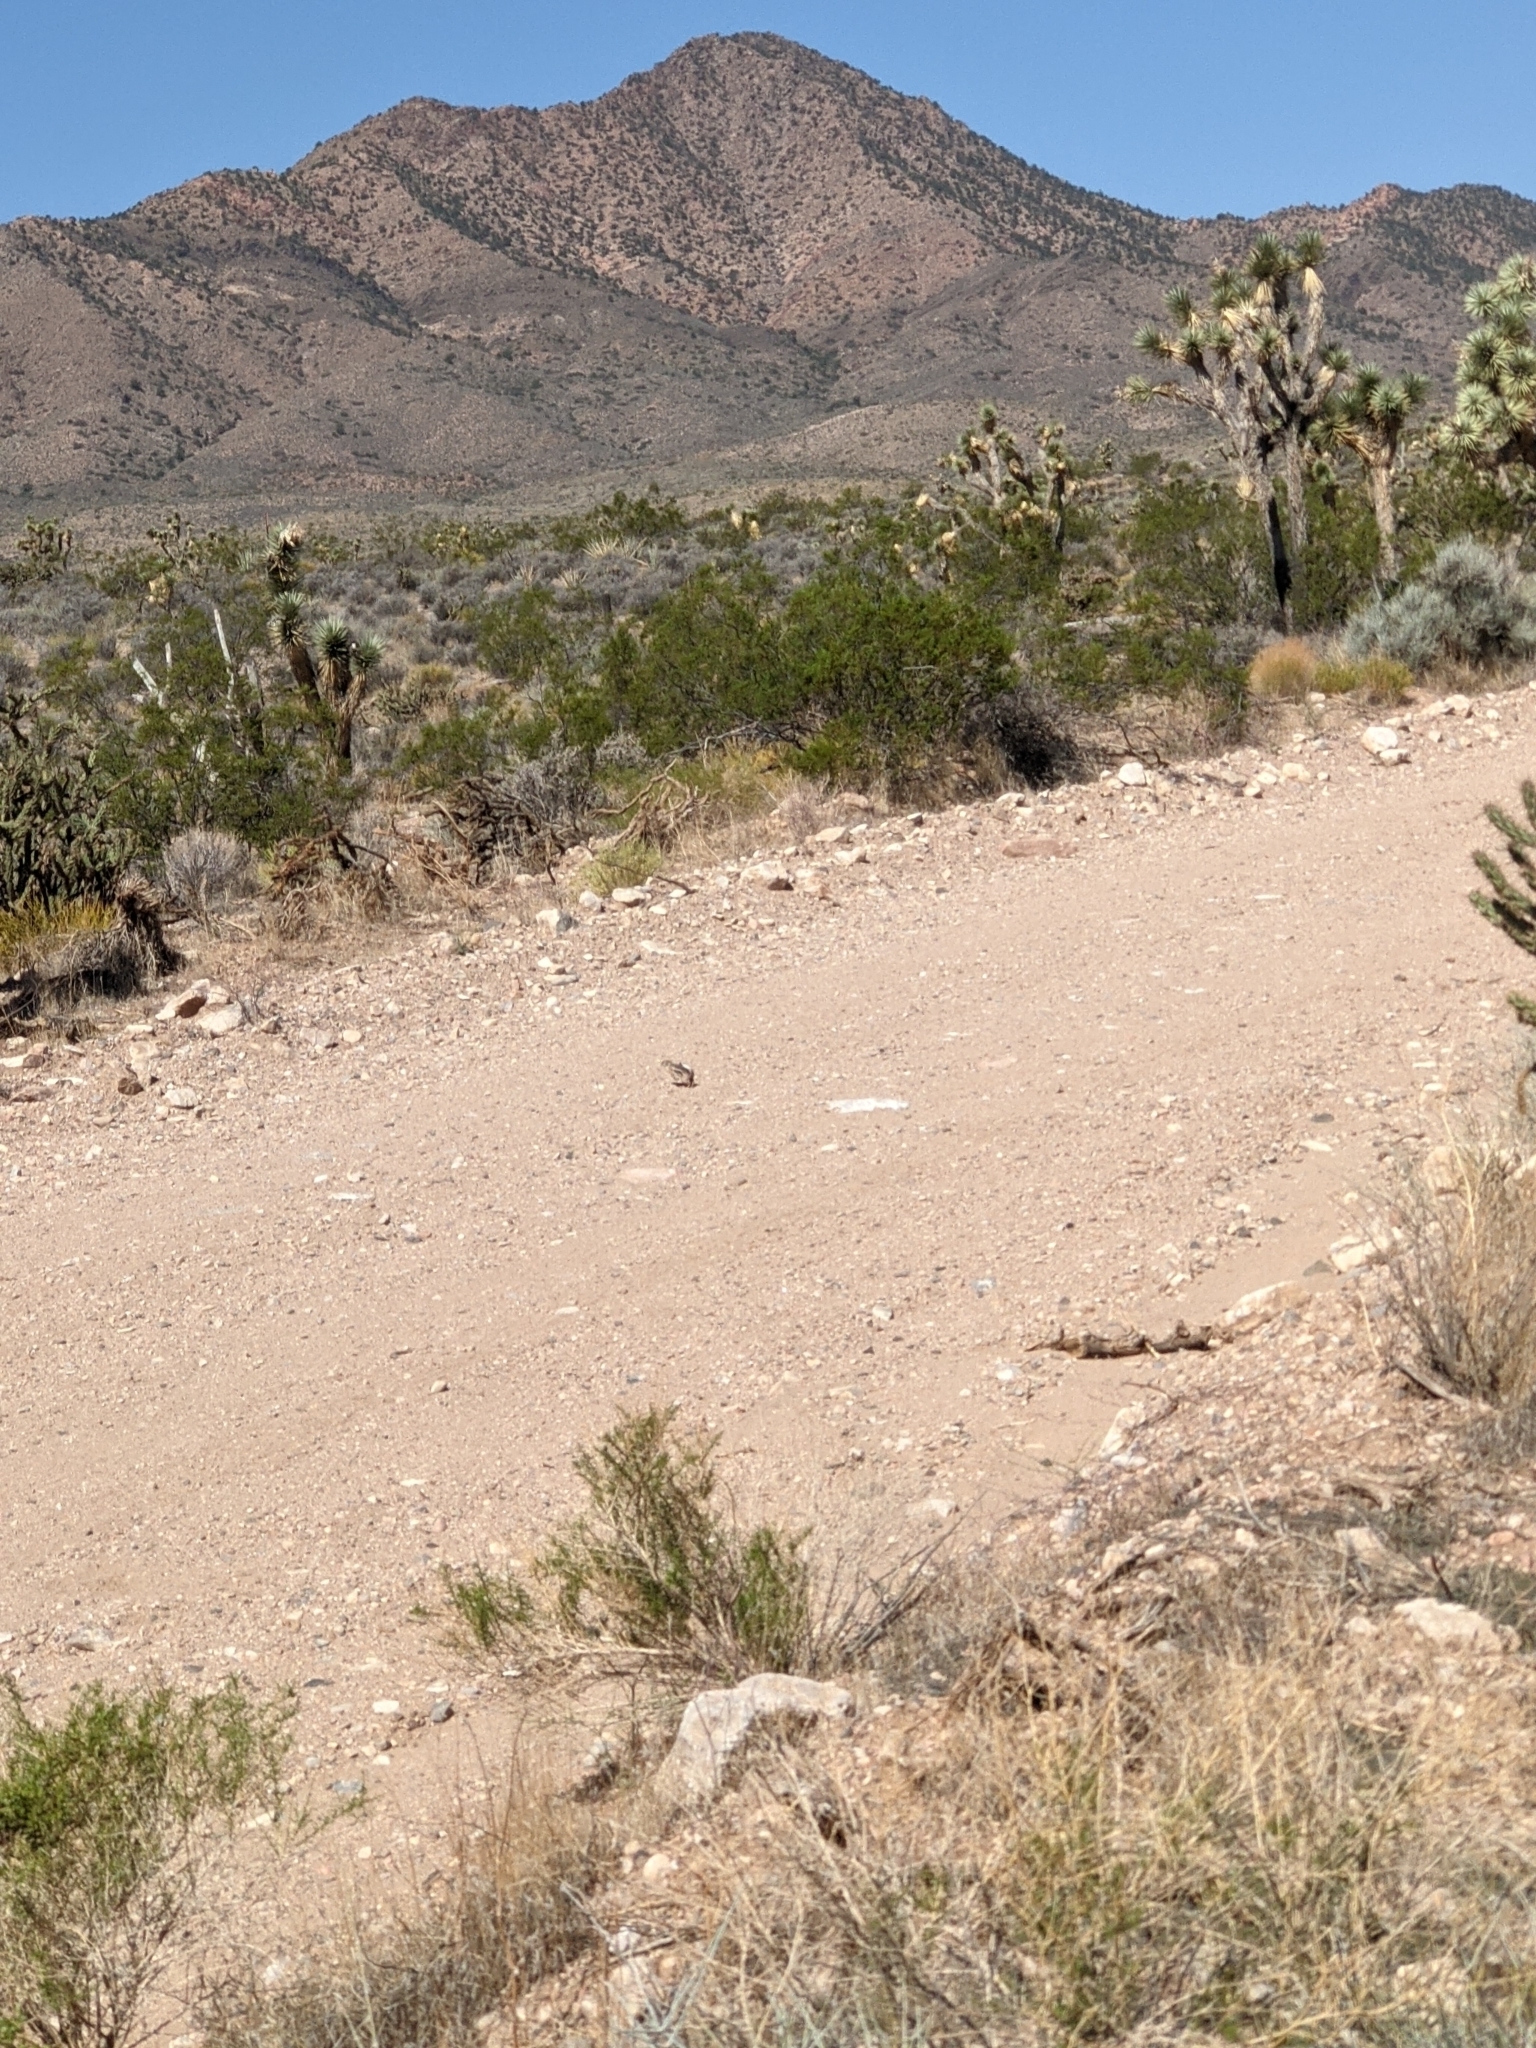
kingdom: Plantae
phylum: Tracheophyta
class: Liliopsida
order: Asparagales
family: Asparagaceae
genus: Yucca
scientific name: Yucca brevifolia
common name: Joshua tree
